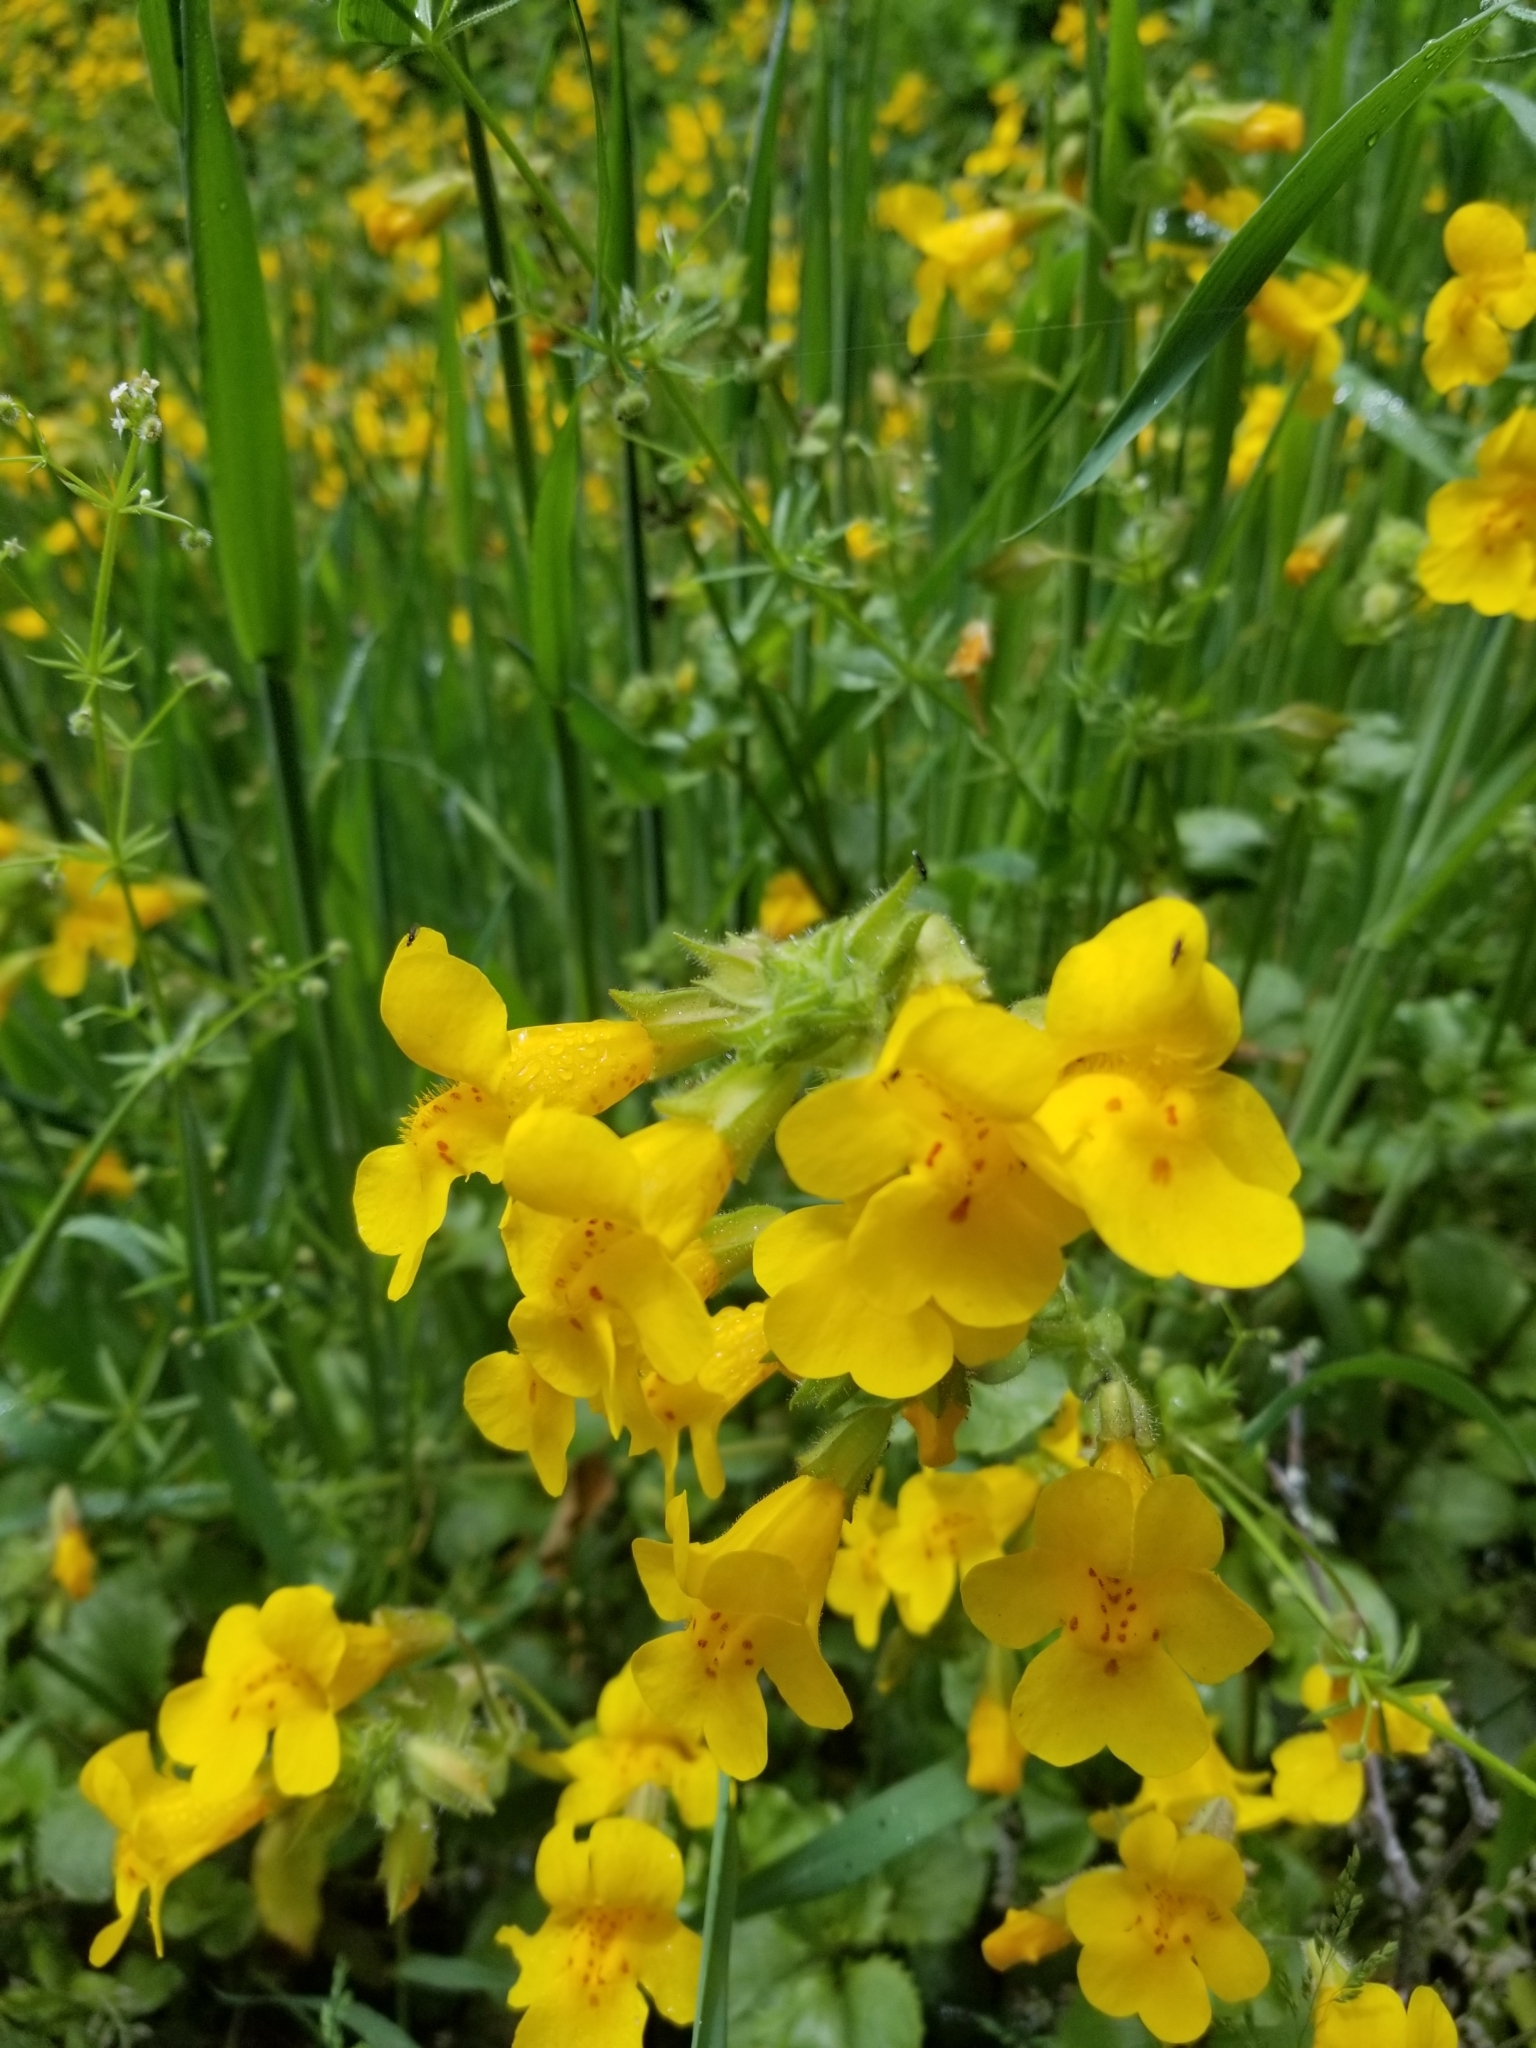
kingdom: Plantae
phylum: Tracheophyta
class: Magnoliopsida
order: Lamiales
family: Phrymaceae
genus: Erythranthe
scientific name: Erythranthe guttata
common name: Monkeyflower
